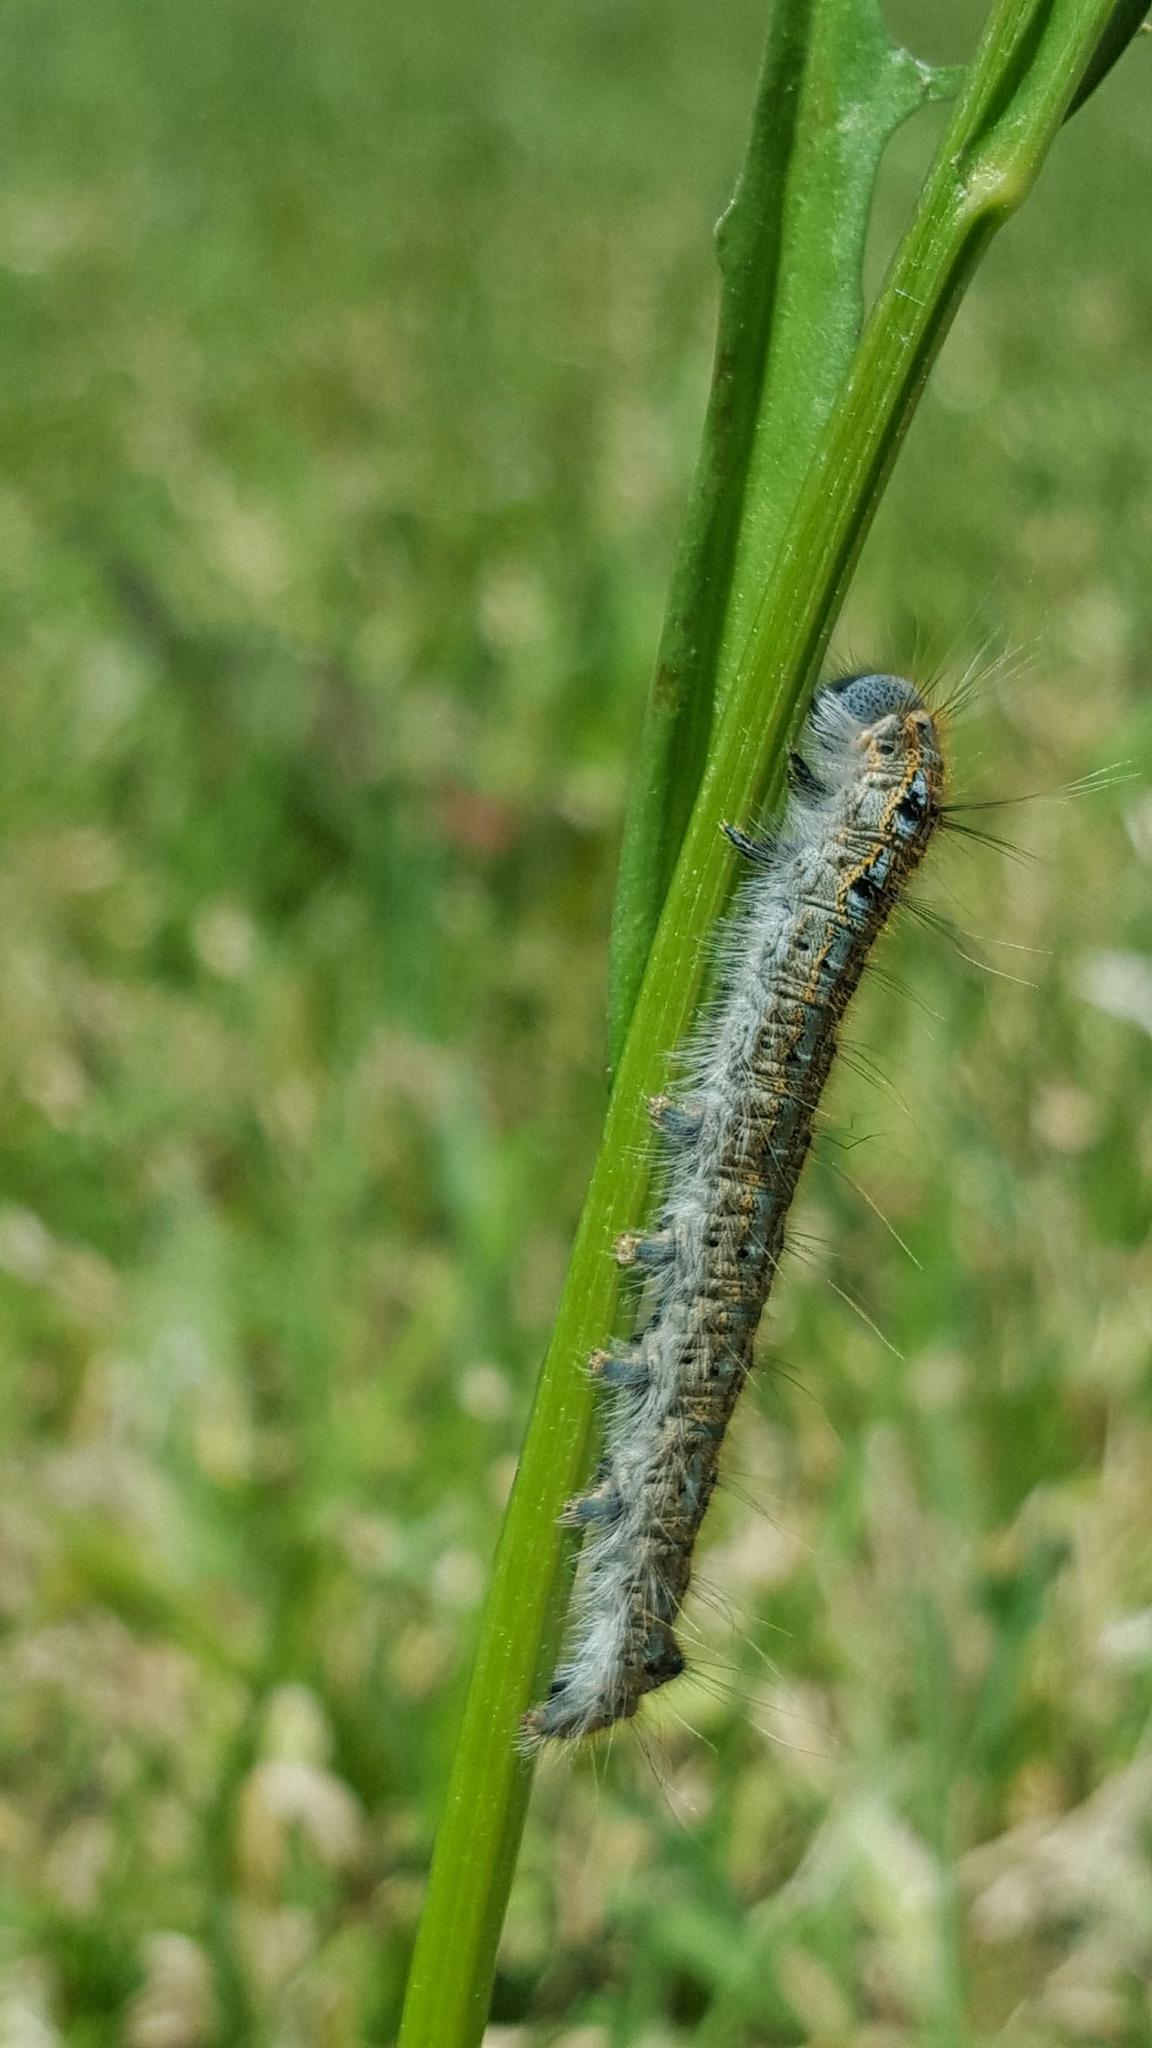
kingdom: Animalia
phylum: Arthropoda
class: Insecta
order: Lepidoptera
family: Lasiocampidae
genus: Malacosoma
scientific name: Malacosoma disstria
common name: Forest tent caterpillar
